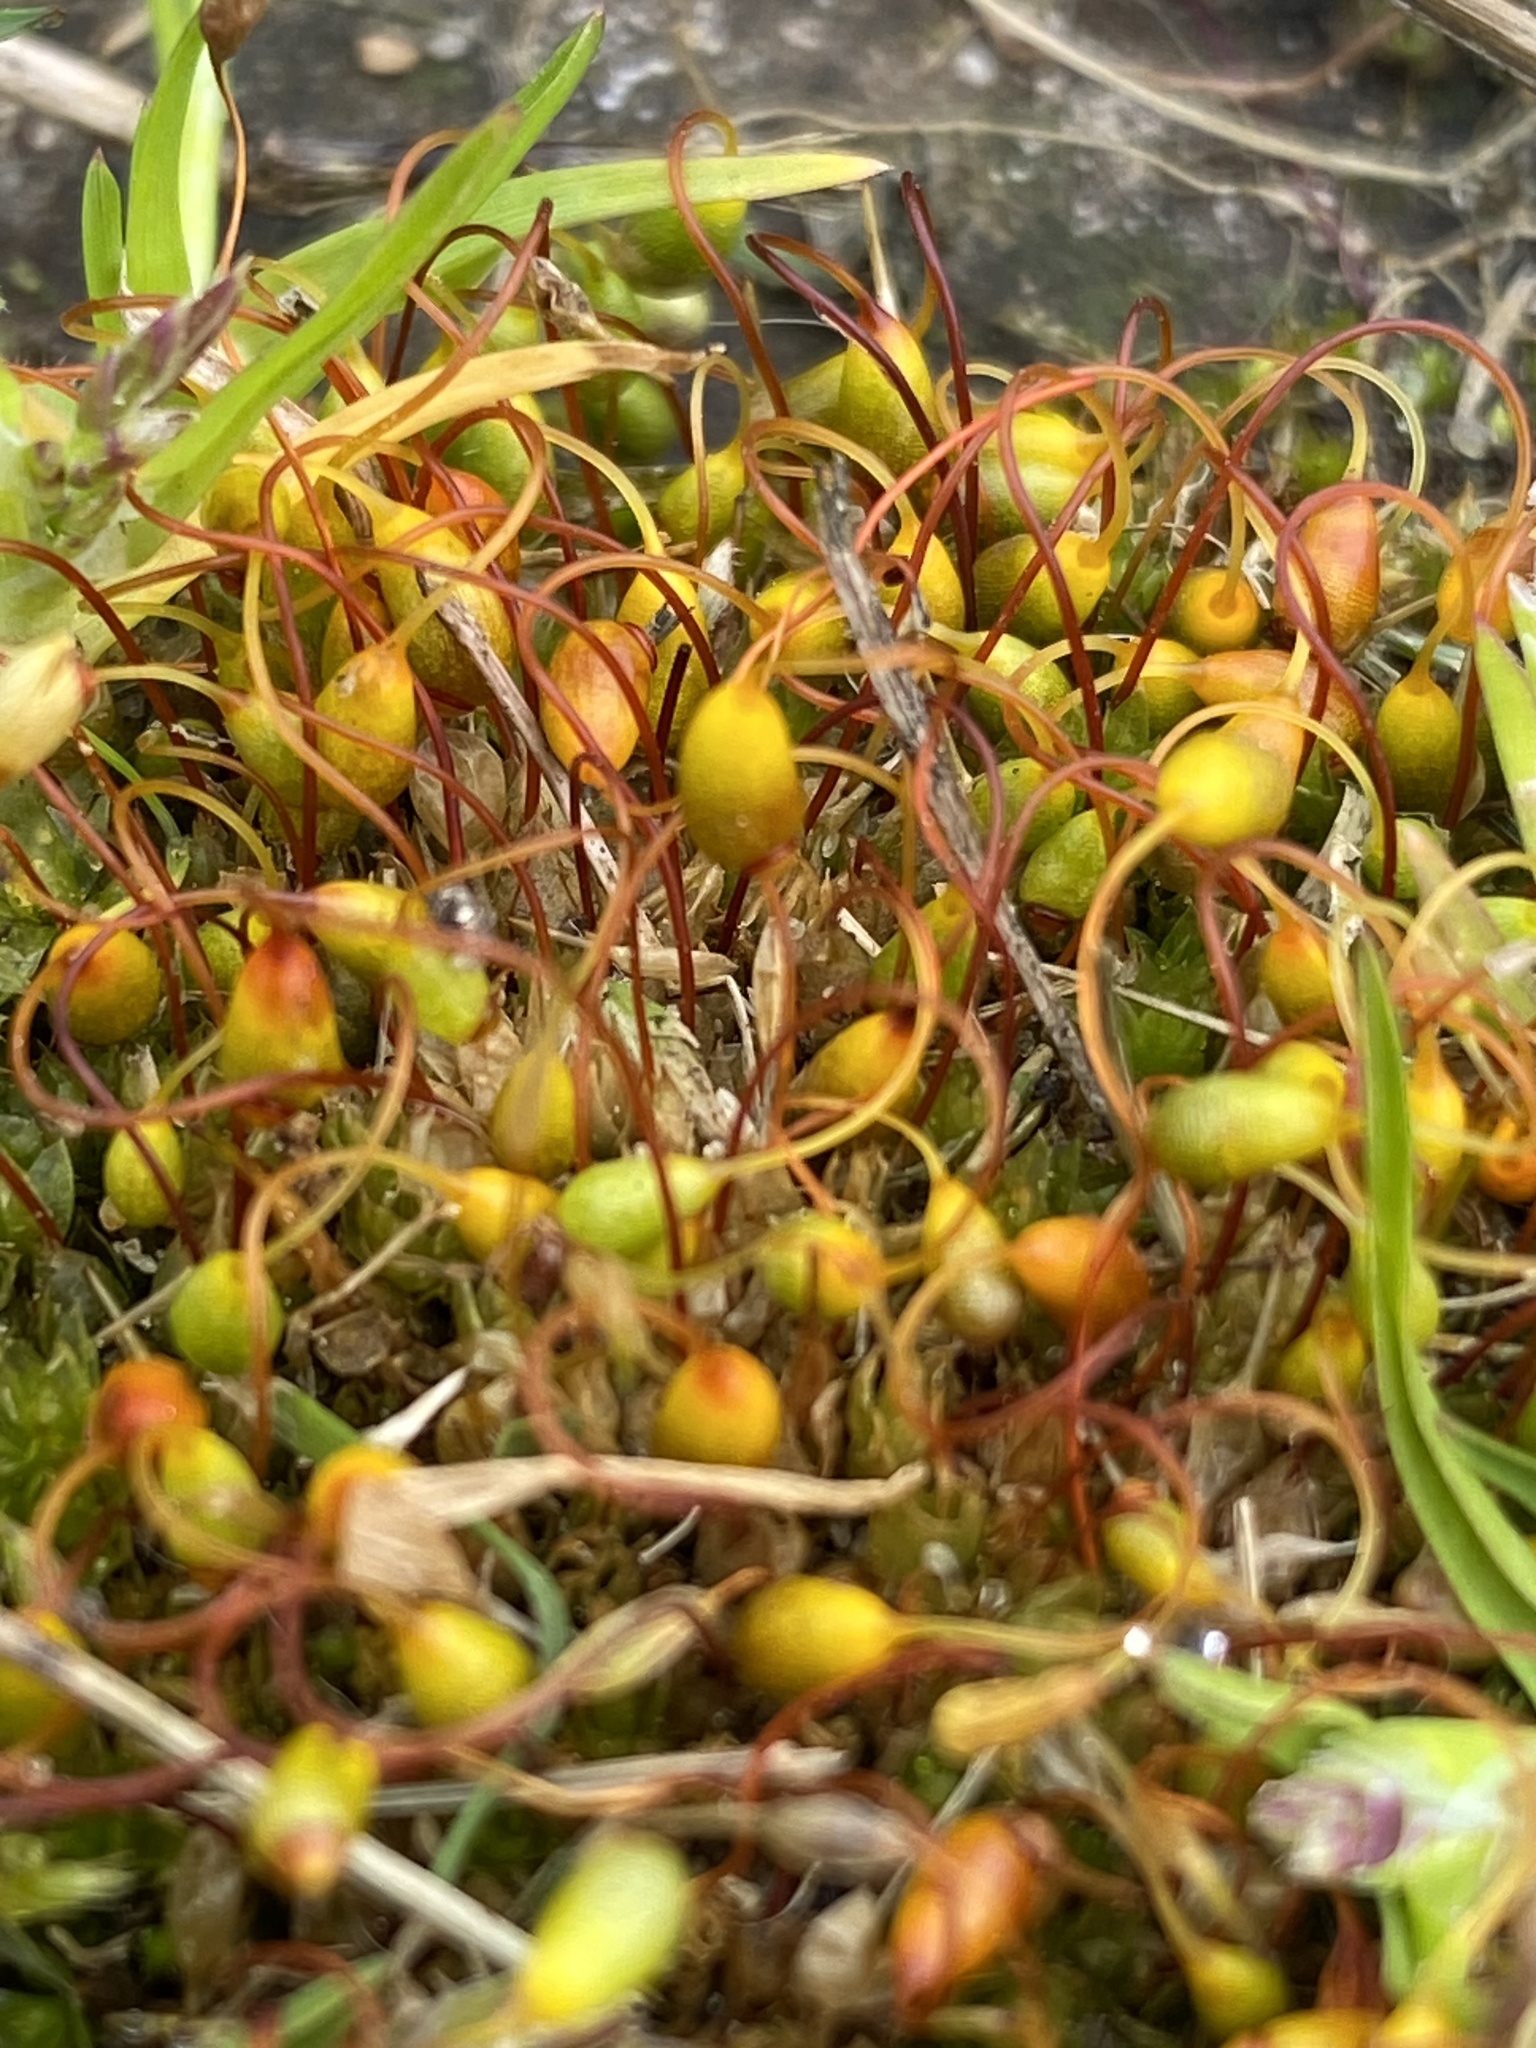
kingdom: Plantae
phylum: Bryophyta
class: Bryopsida
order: Funariales
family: Funariaceae
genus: Funaria
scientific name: Funaria hygrometrica
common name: Common cord moss
